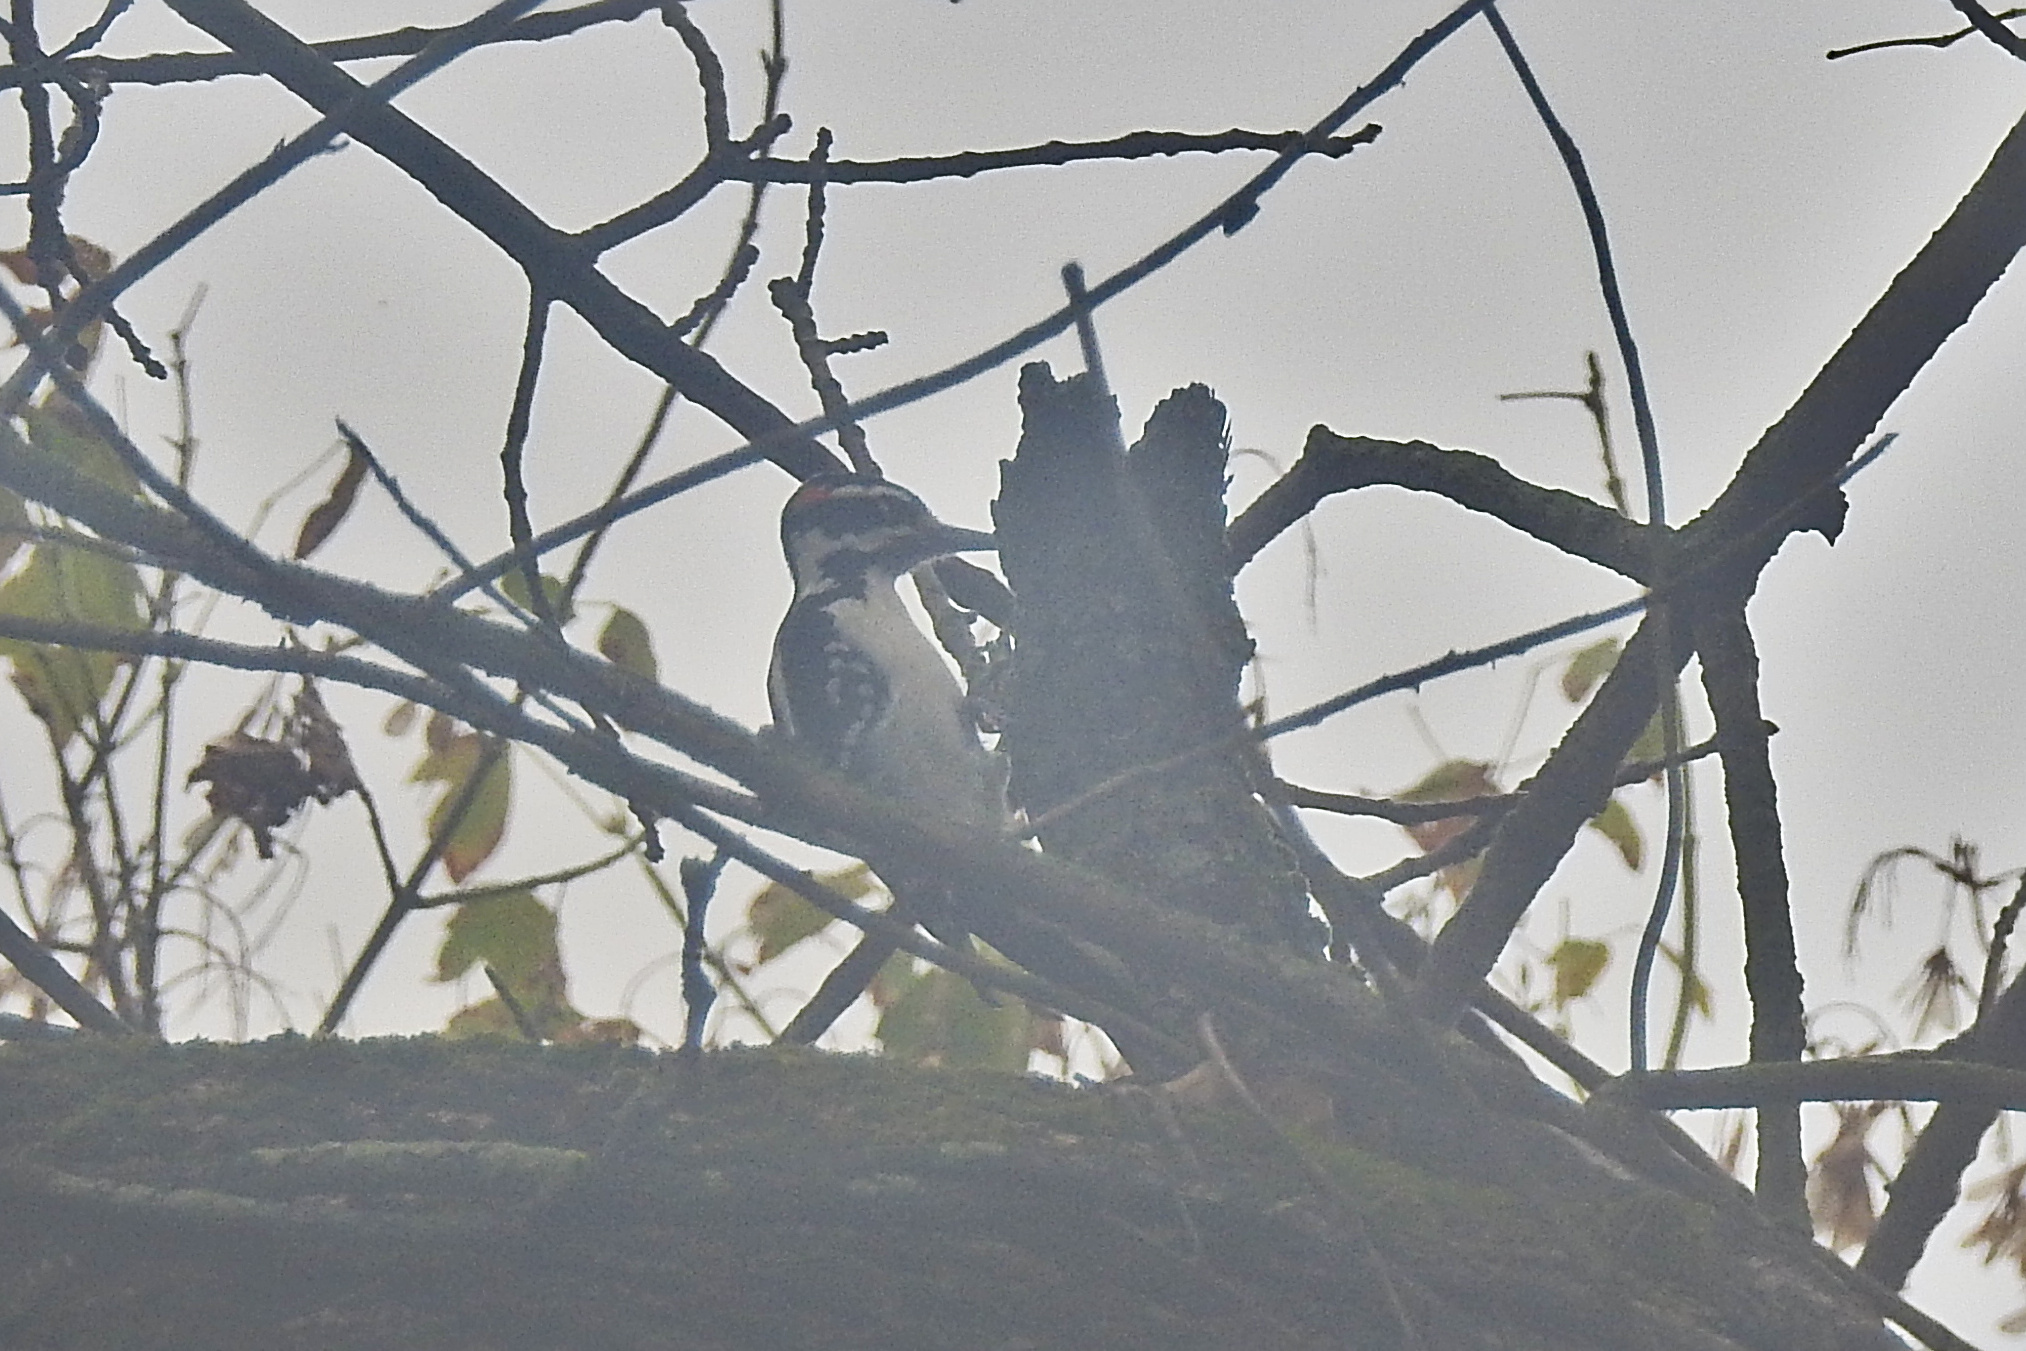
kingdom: Animalia
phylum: Chordata
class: Aves
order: Piciformes
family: Picidae
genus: Leuconotopicus
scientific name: Leuconotopicus villosus
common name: Hairy woodpecker
